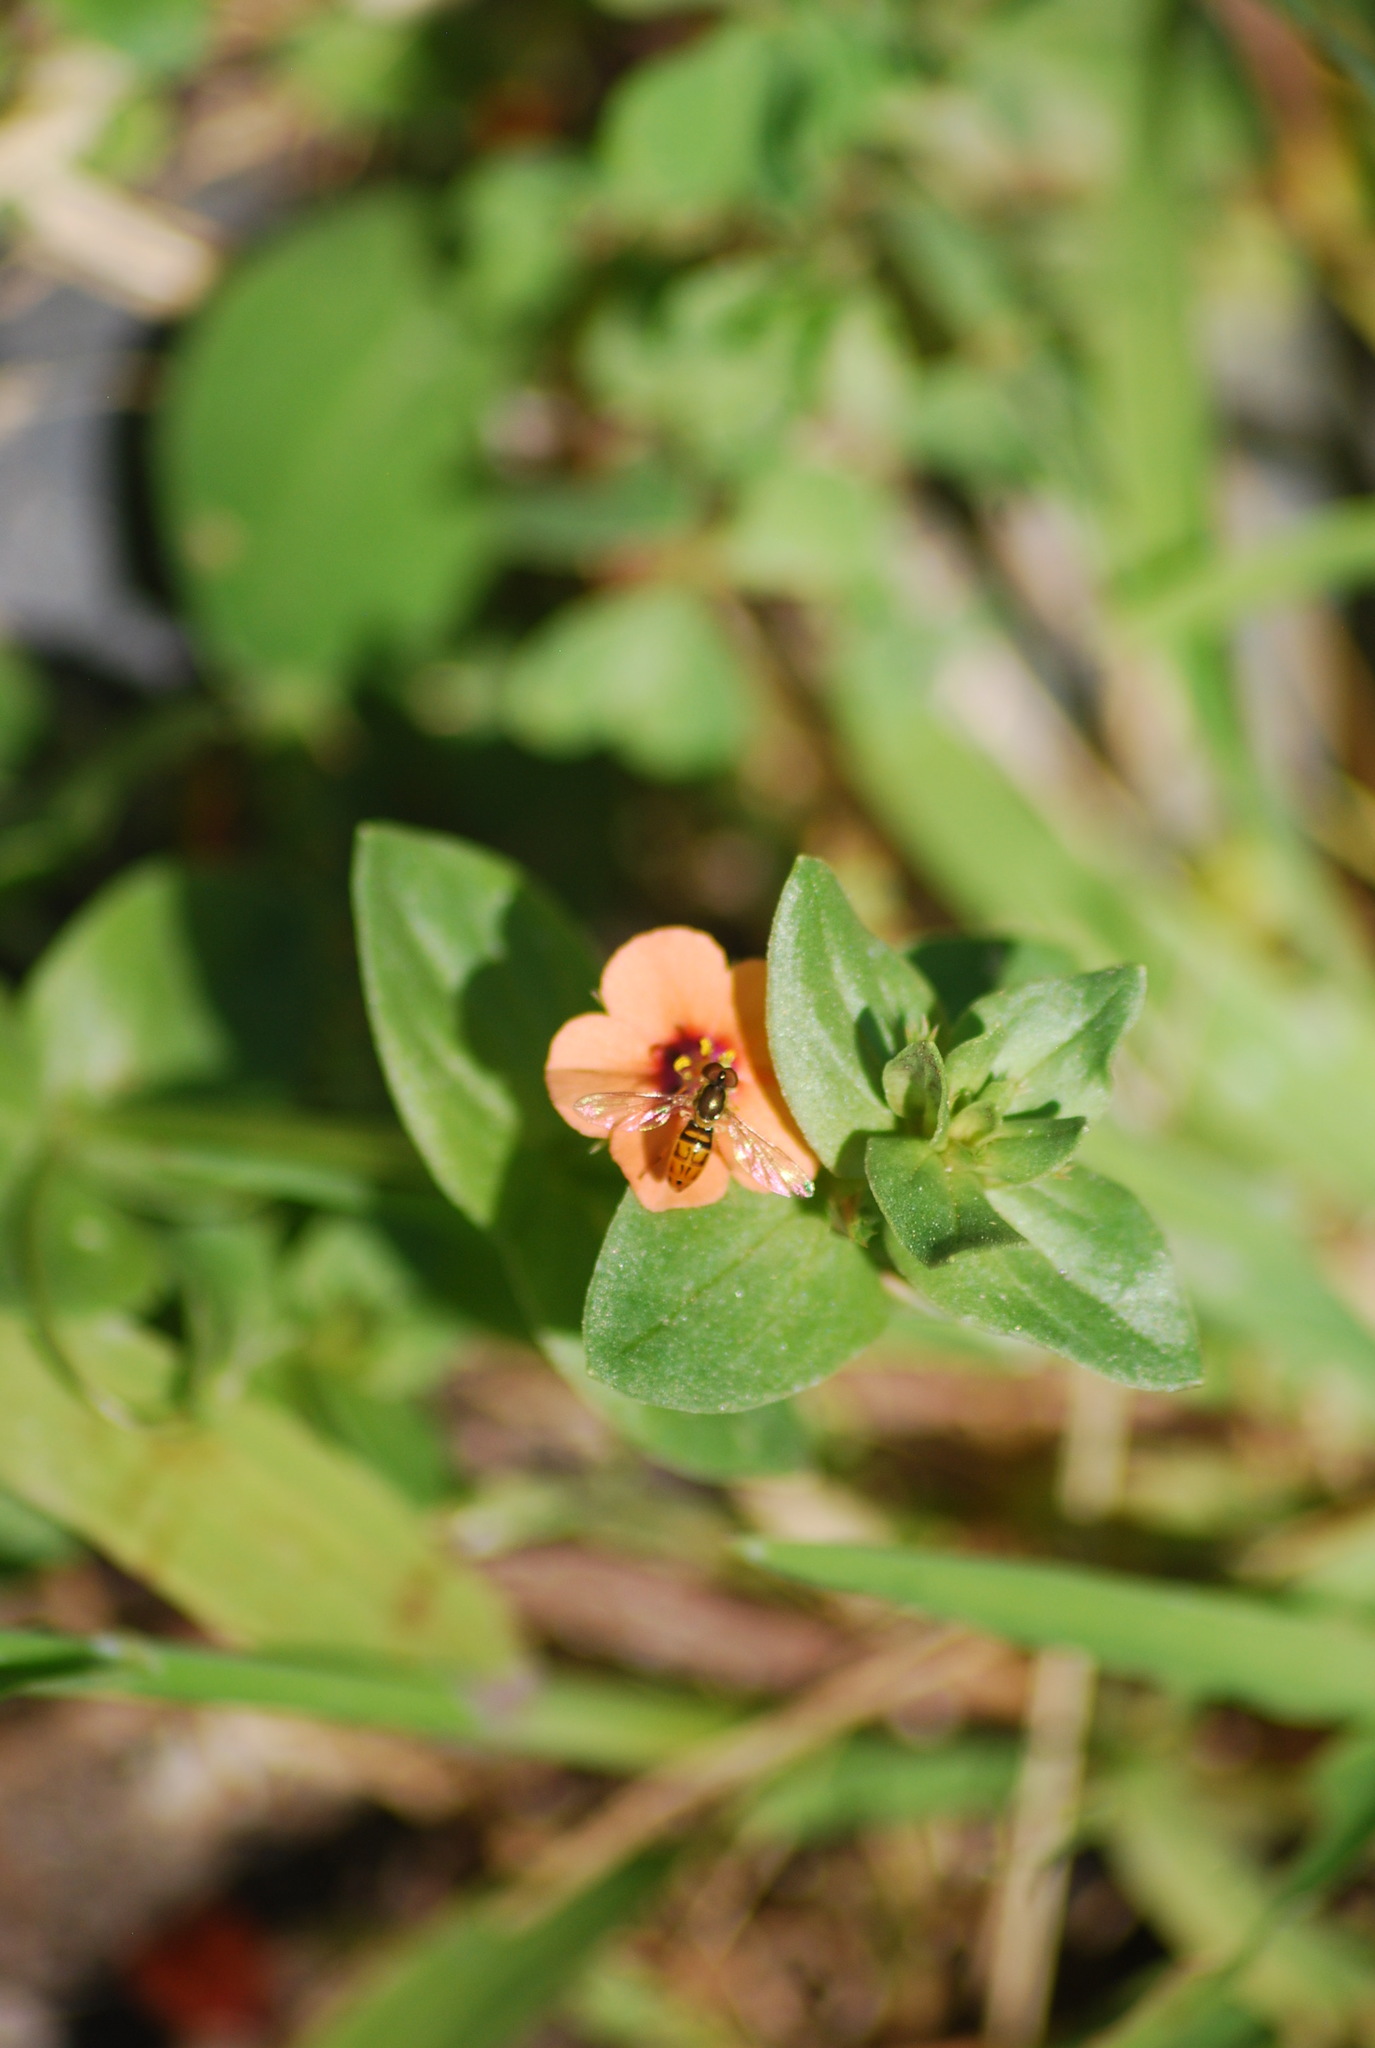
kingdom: Animalia
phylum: Arthropoda
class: Insecta
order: Diptera
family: Syrphidae
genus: Toxomerus
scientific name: Toxomerus marginatus
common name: Syrphid fly
